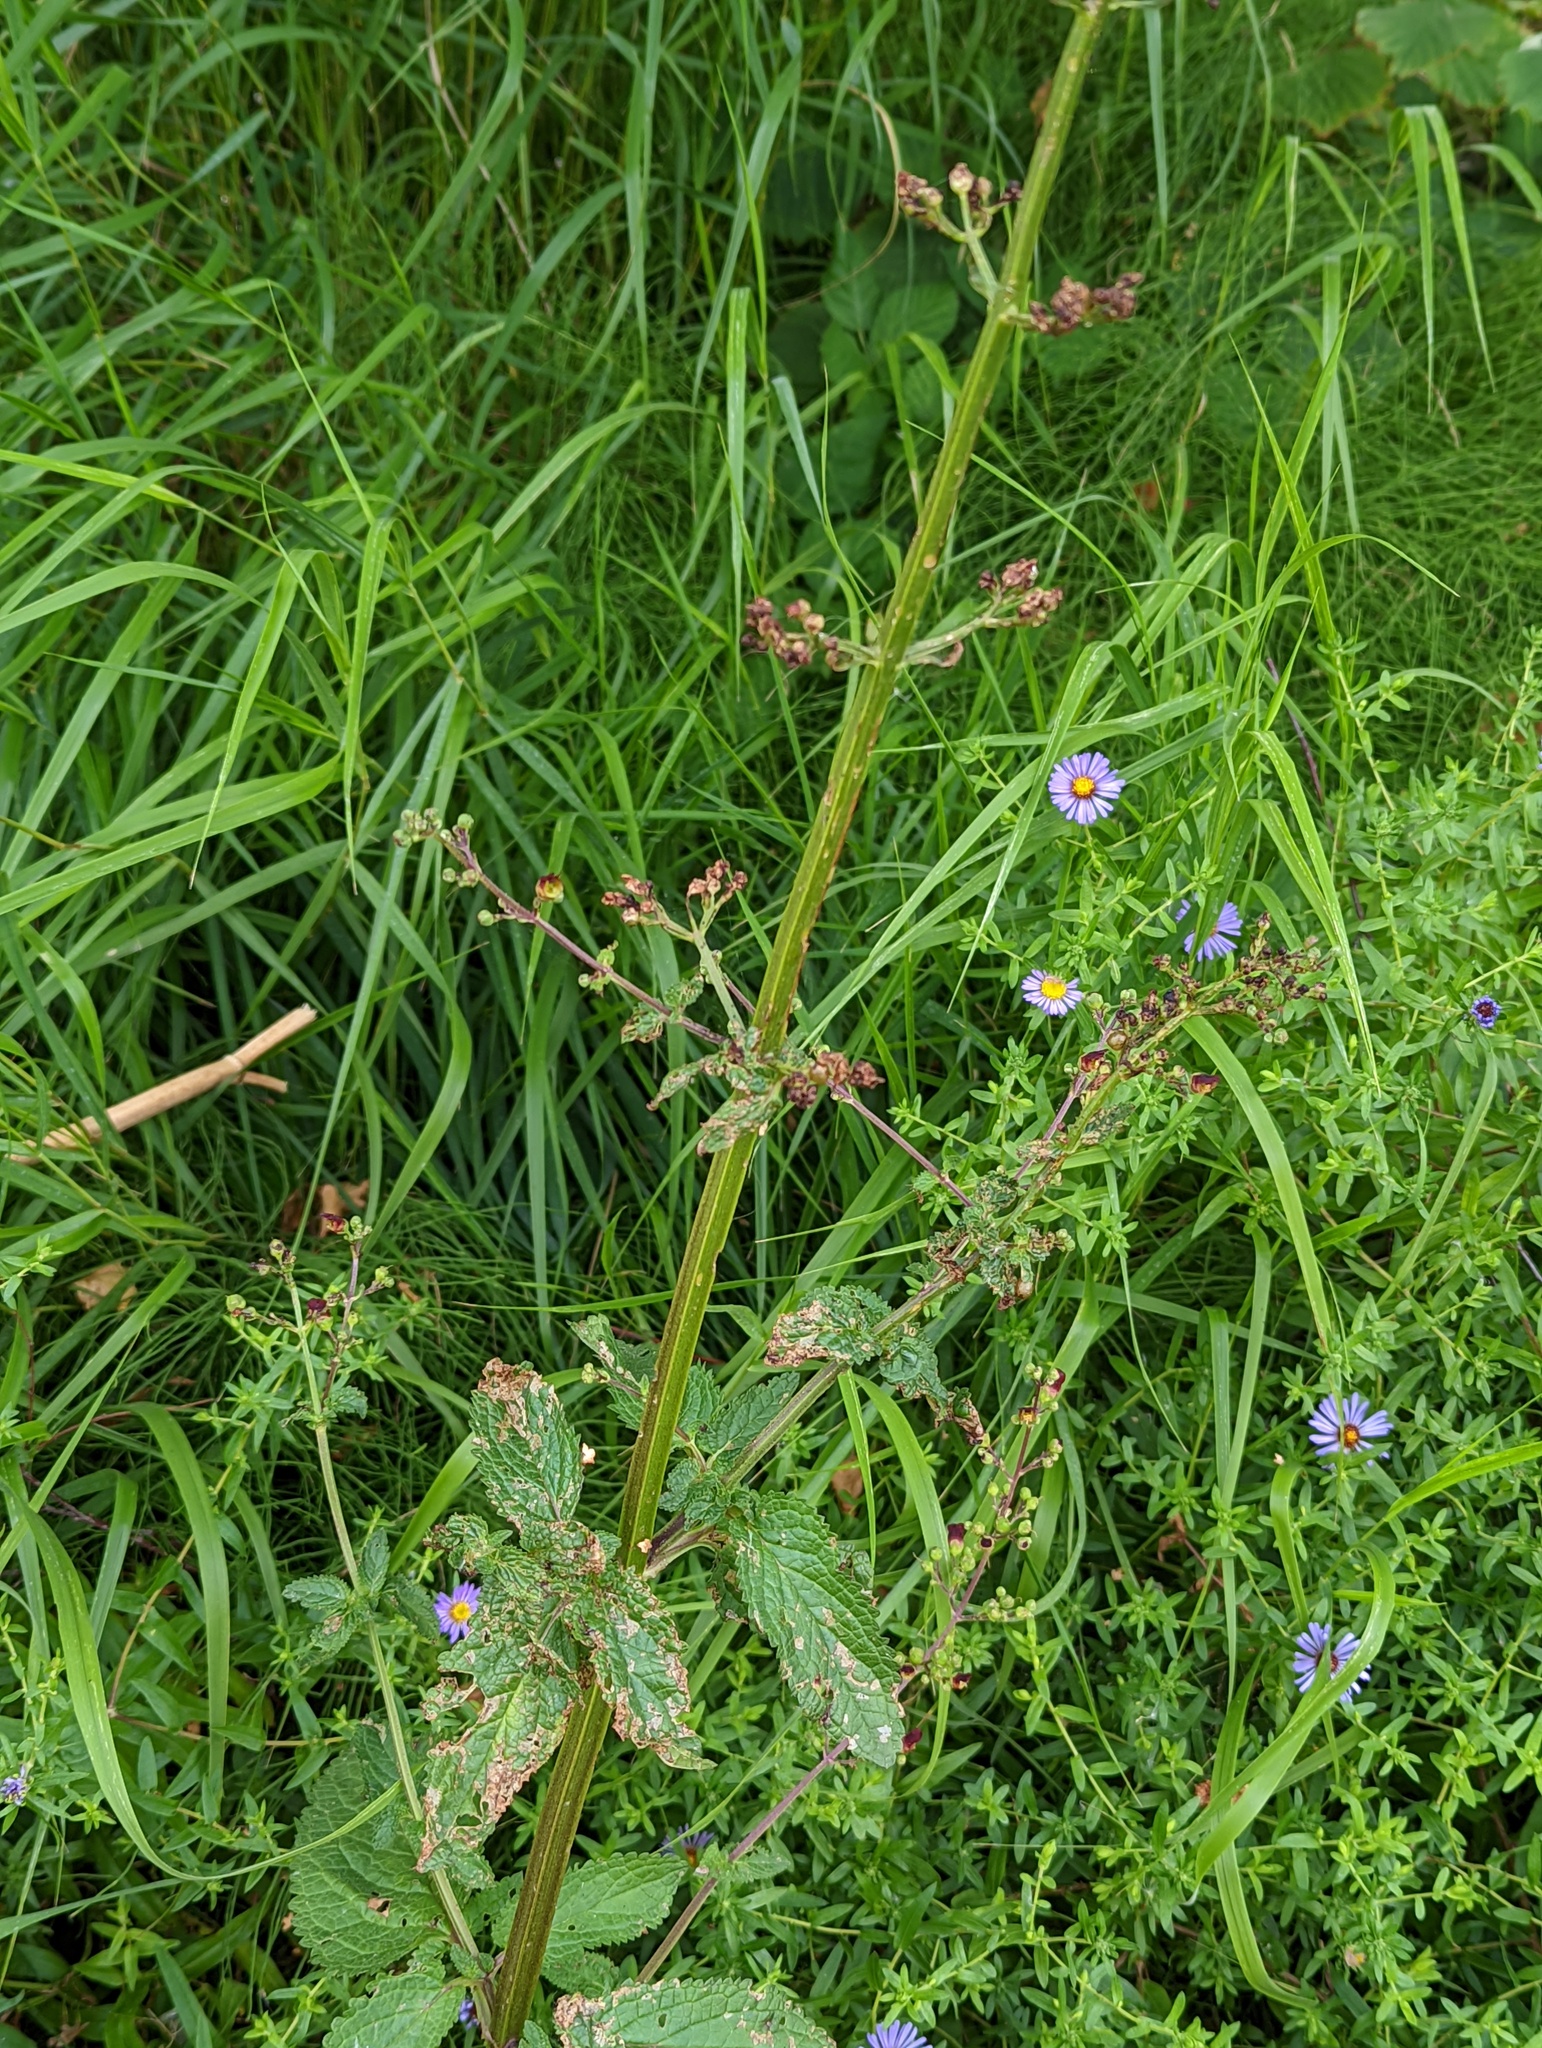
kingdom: Plantae
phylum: Tracheophyta
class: Magnoliopsida
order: Lamiales
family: Scrophulariaceae
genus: Scrophularia
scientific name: Scrophularia auriculata
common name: Water betony
